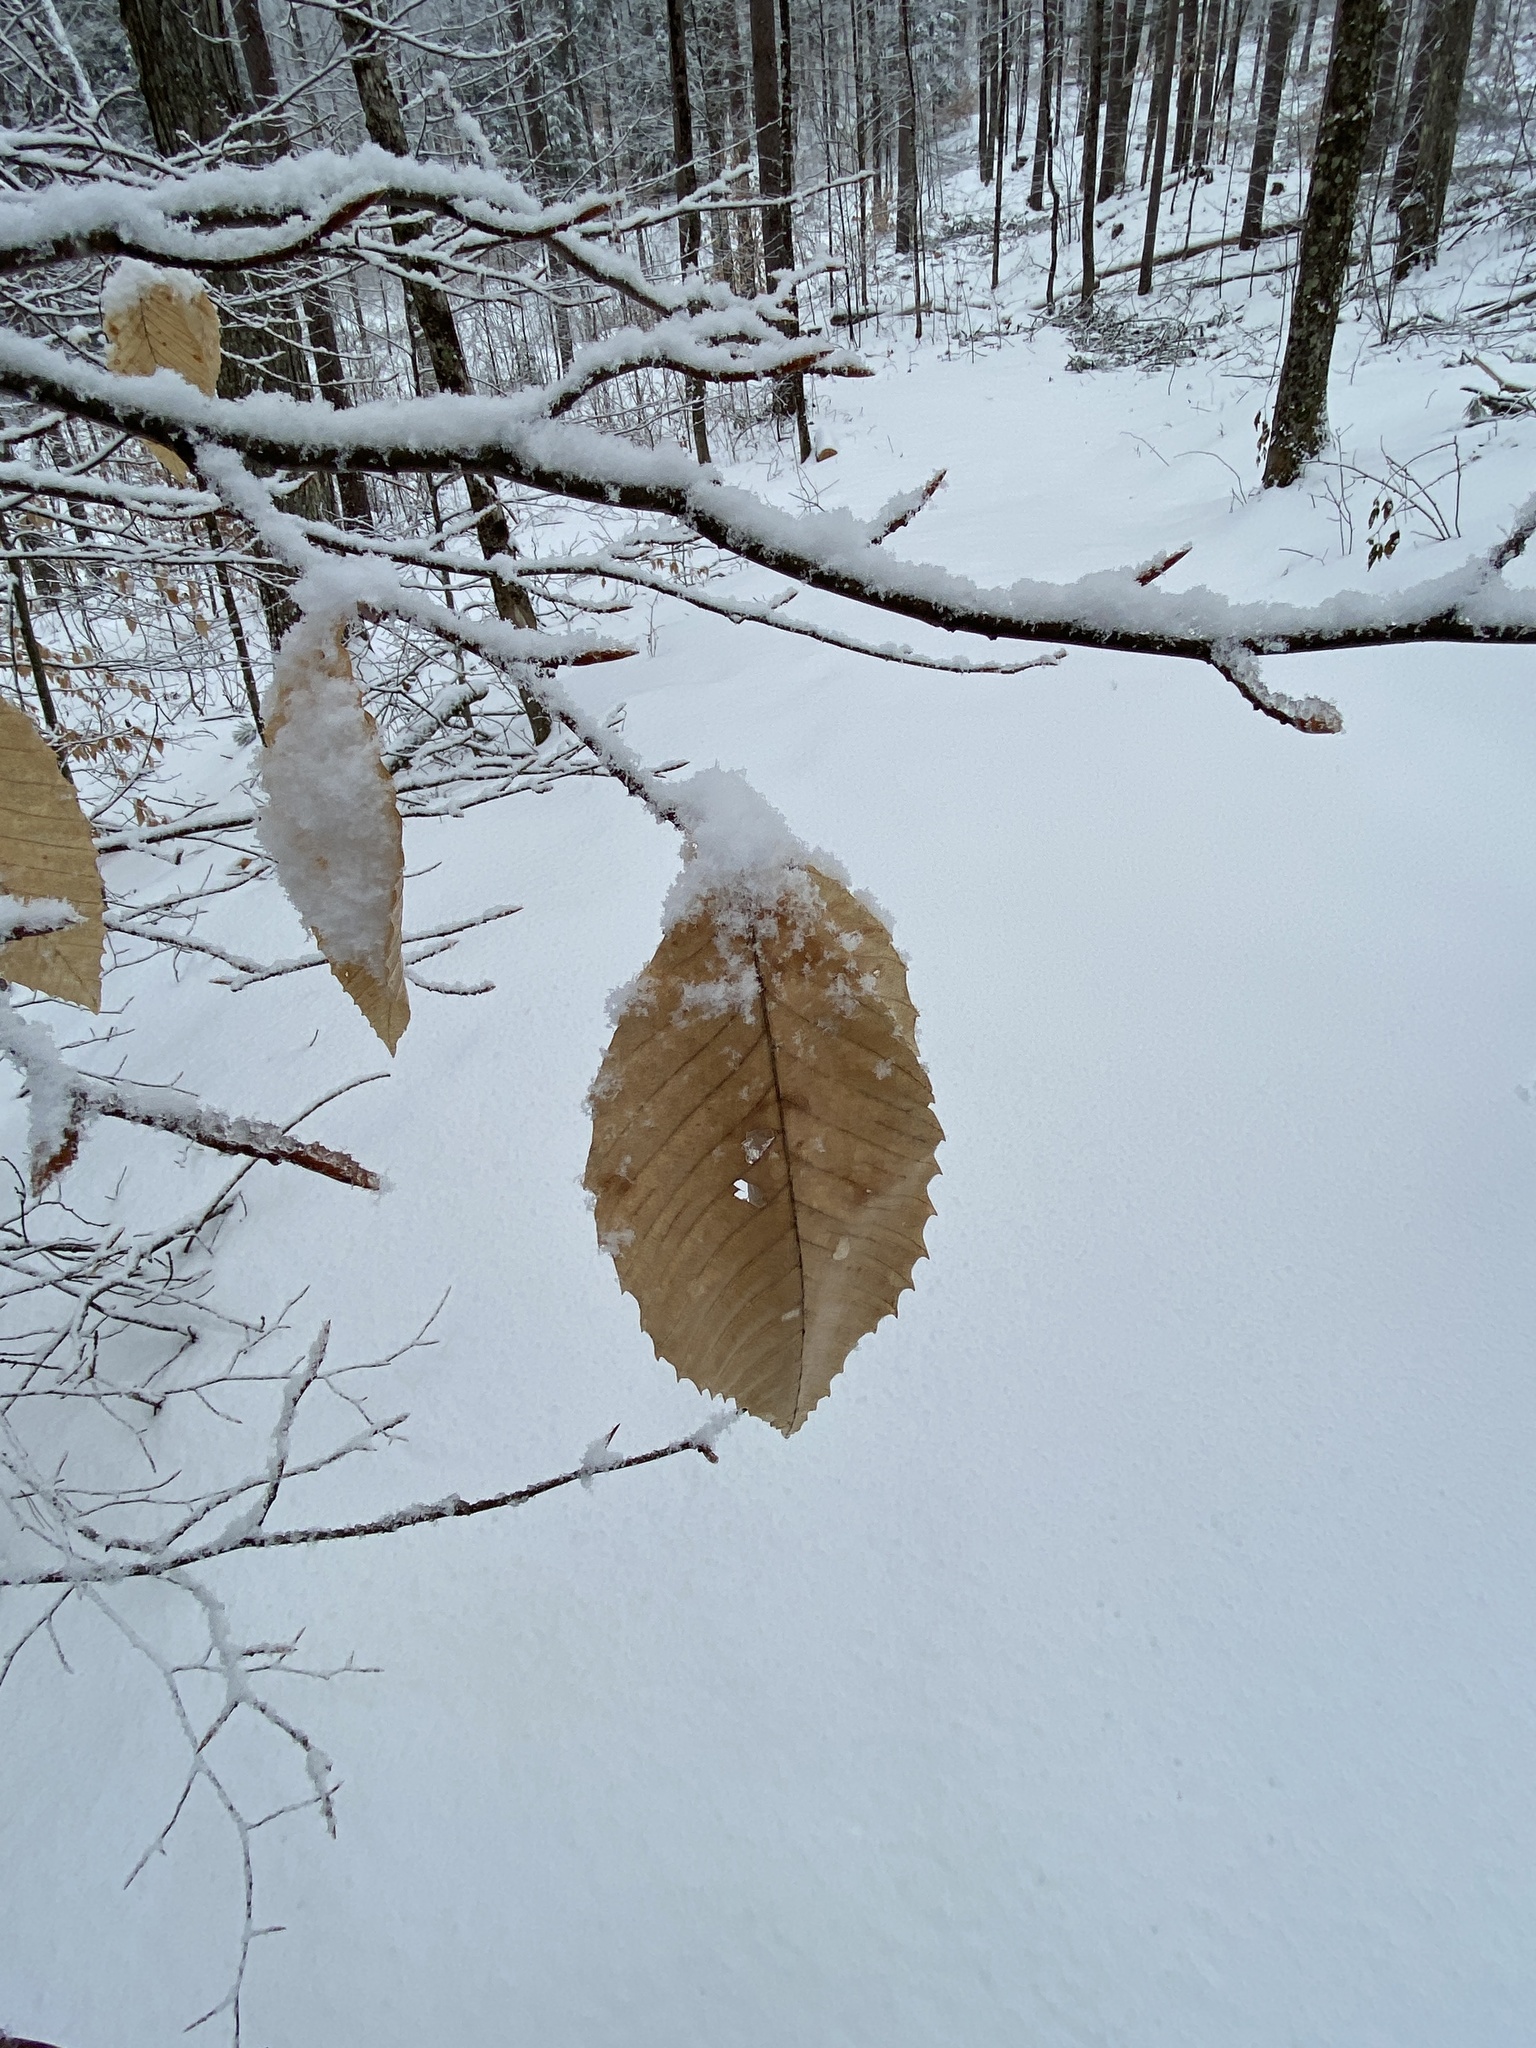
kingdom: Plantae
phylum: Tracheophyta
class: Magnoliopsida
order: Fagales
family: Fagaceae
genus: Fagus
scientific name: Fagus grandifolia
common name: American beech
